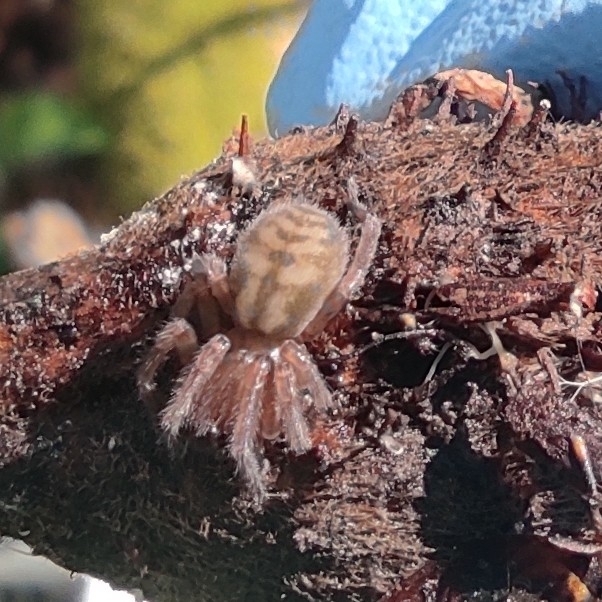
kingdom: Animalia
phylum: Arthropoda
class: Arachnida
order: Araneae
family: Amaurobiidae
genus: Callobius
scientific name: Callobius claustrarius
